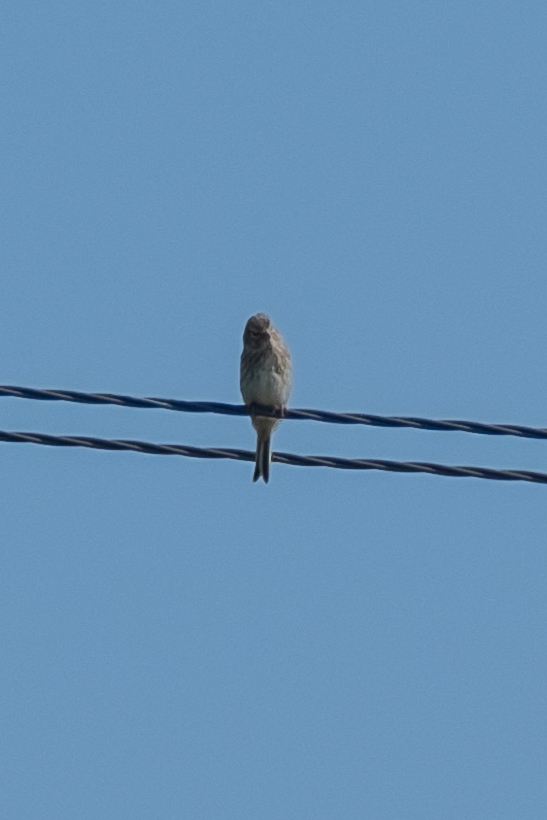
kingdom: Animalia
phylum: Chordata
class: Aves
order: Passeriformes
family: Fringillidae
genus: Linaria
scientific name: Linaria cannabina
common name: Common linnet
